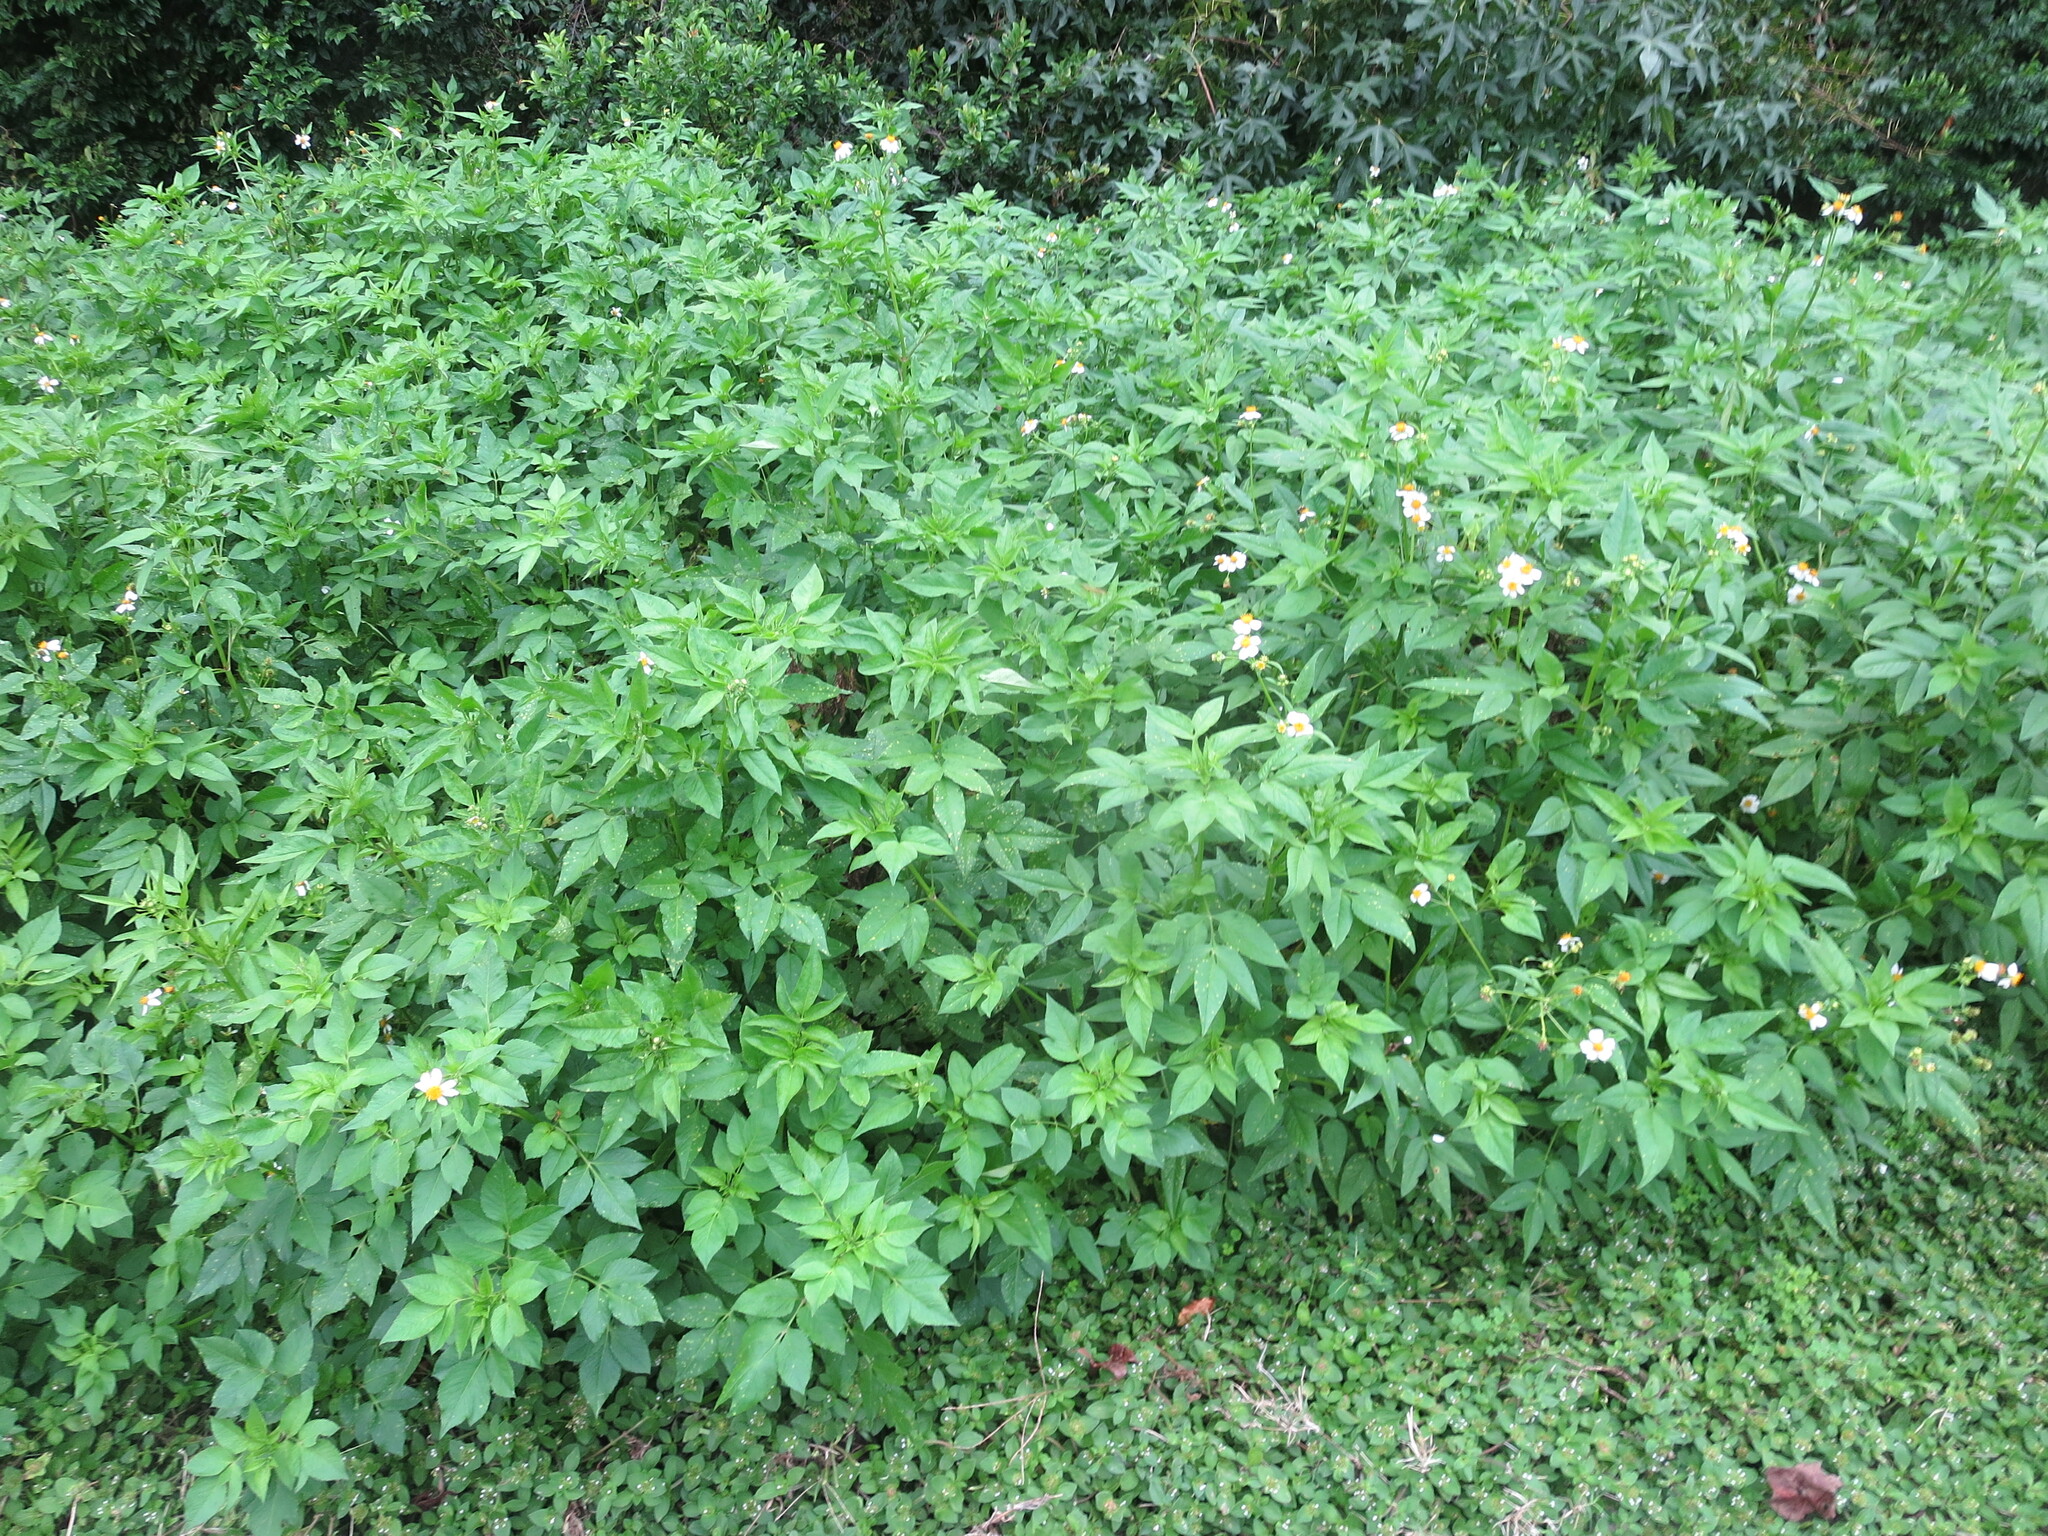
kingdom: Plantae
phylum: Tracheophyta
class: Magnoliopsida
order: Asterales
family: Asteraceae
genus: Bidens
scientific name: Bidens alba
